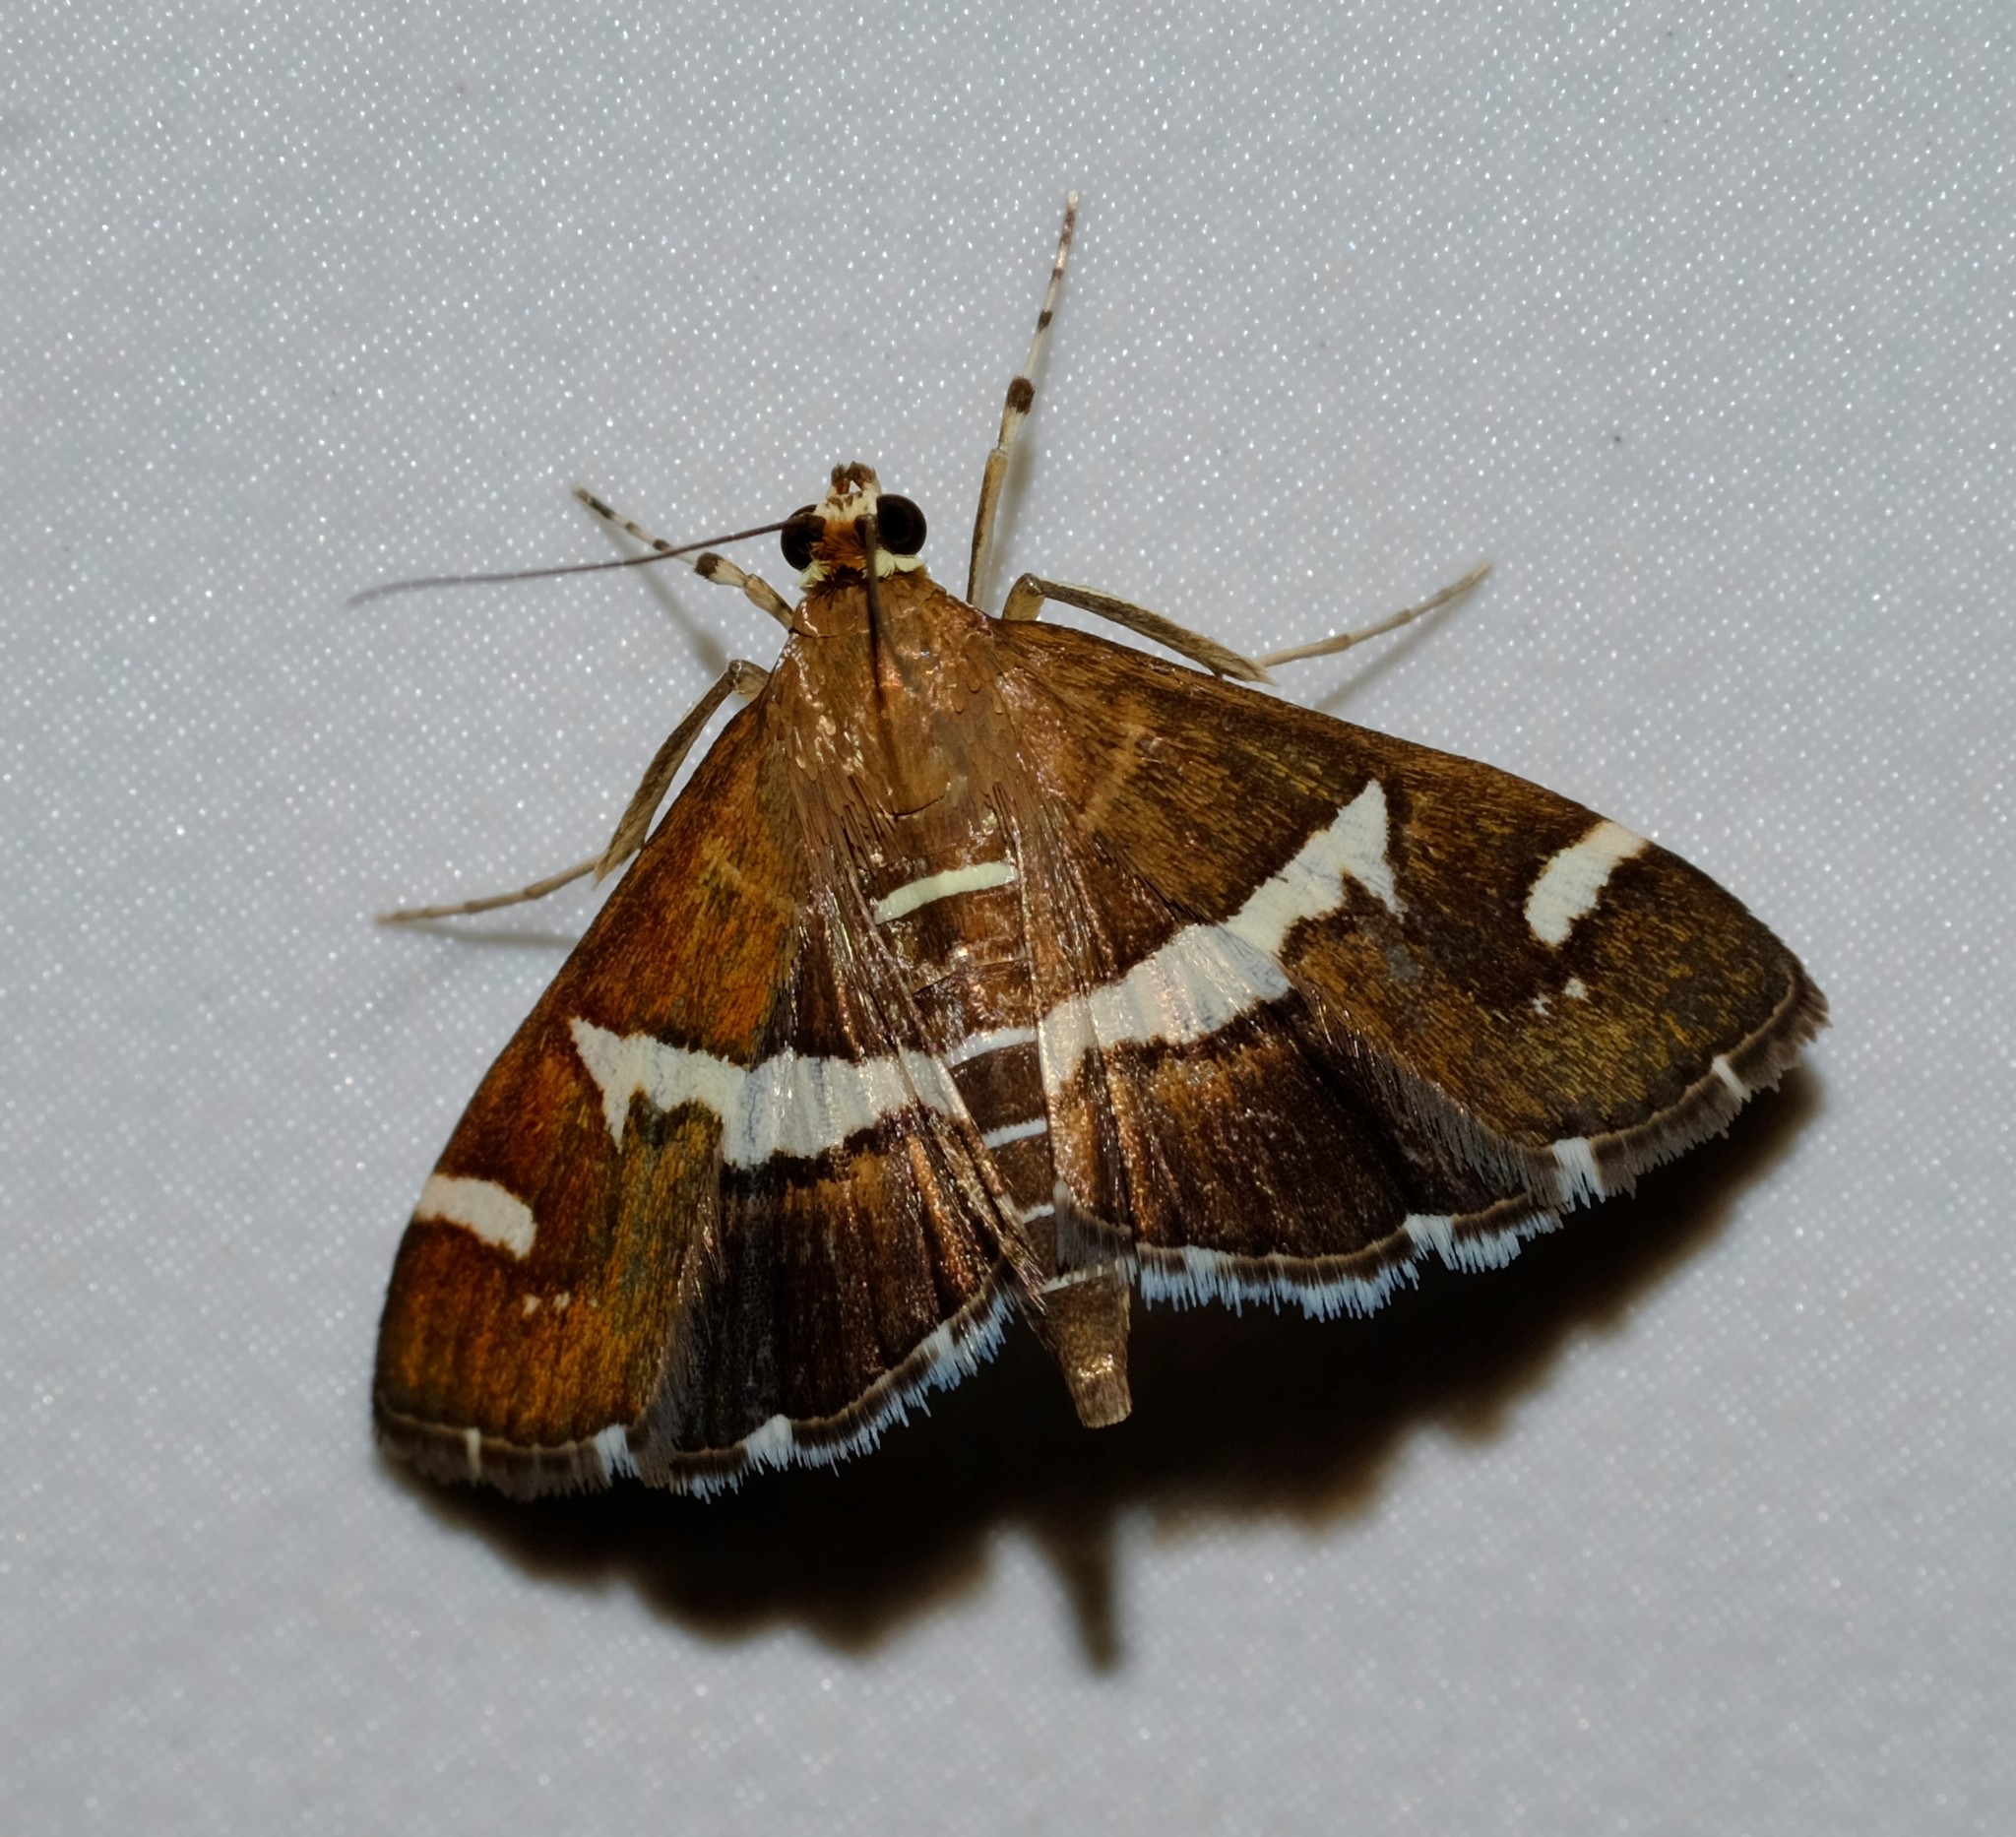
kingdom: Animalia
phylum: Arthropoda
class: Insecta
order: Lepidoptera
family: Crambidae
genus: Spoladea
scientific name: Spoladea recurvalis
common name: Beet webworm moth
